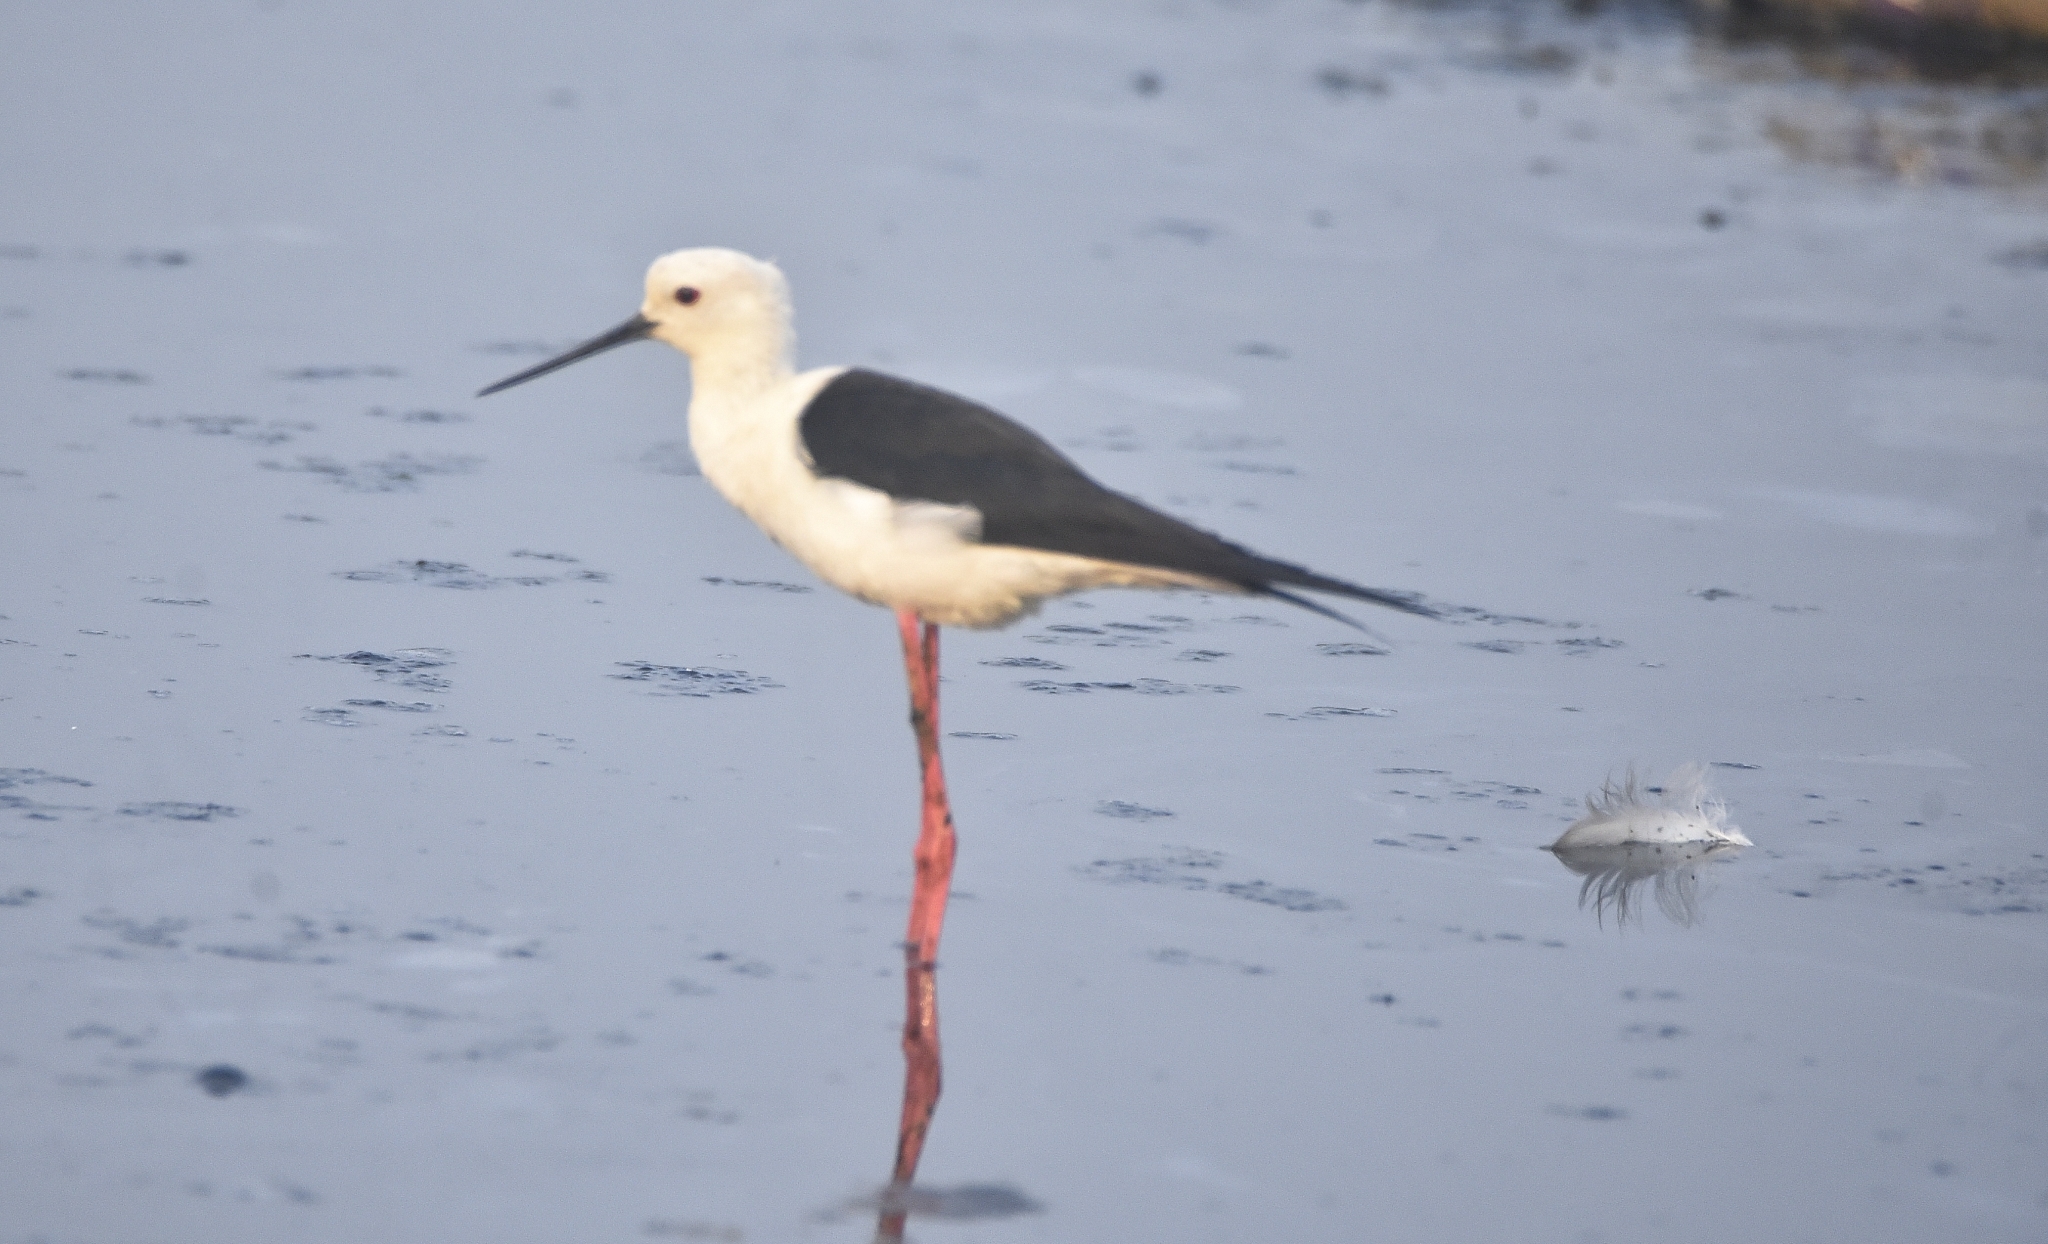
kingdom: Animalia
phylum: Chordata
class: Aves
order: Charadriiformes
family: Recurvirostridae
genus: Himantopus
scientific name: Himantopus himantopus
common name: Black-winged stilt
